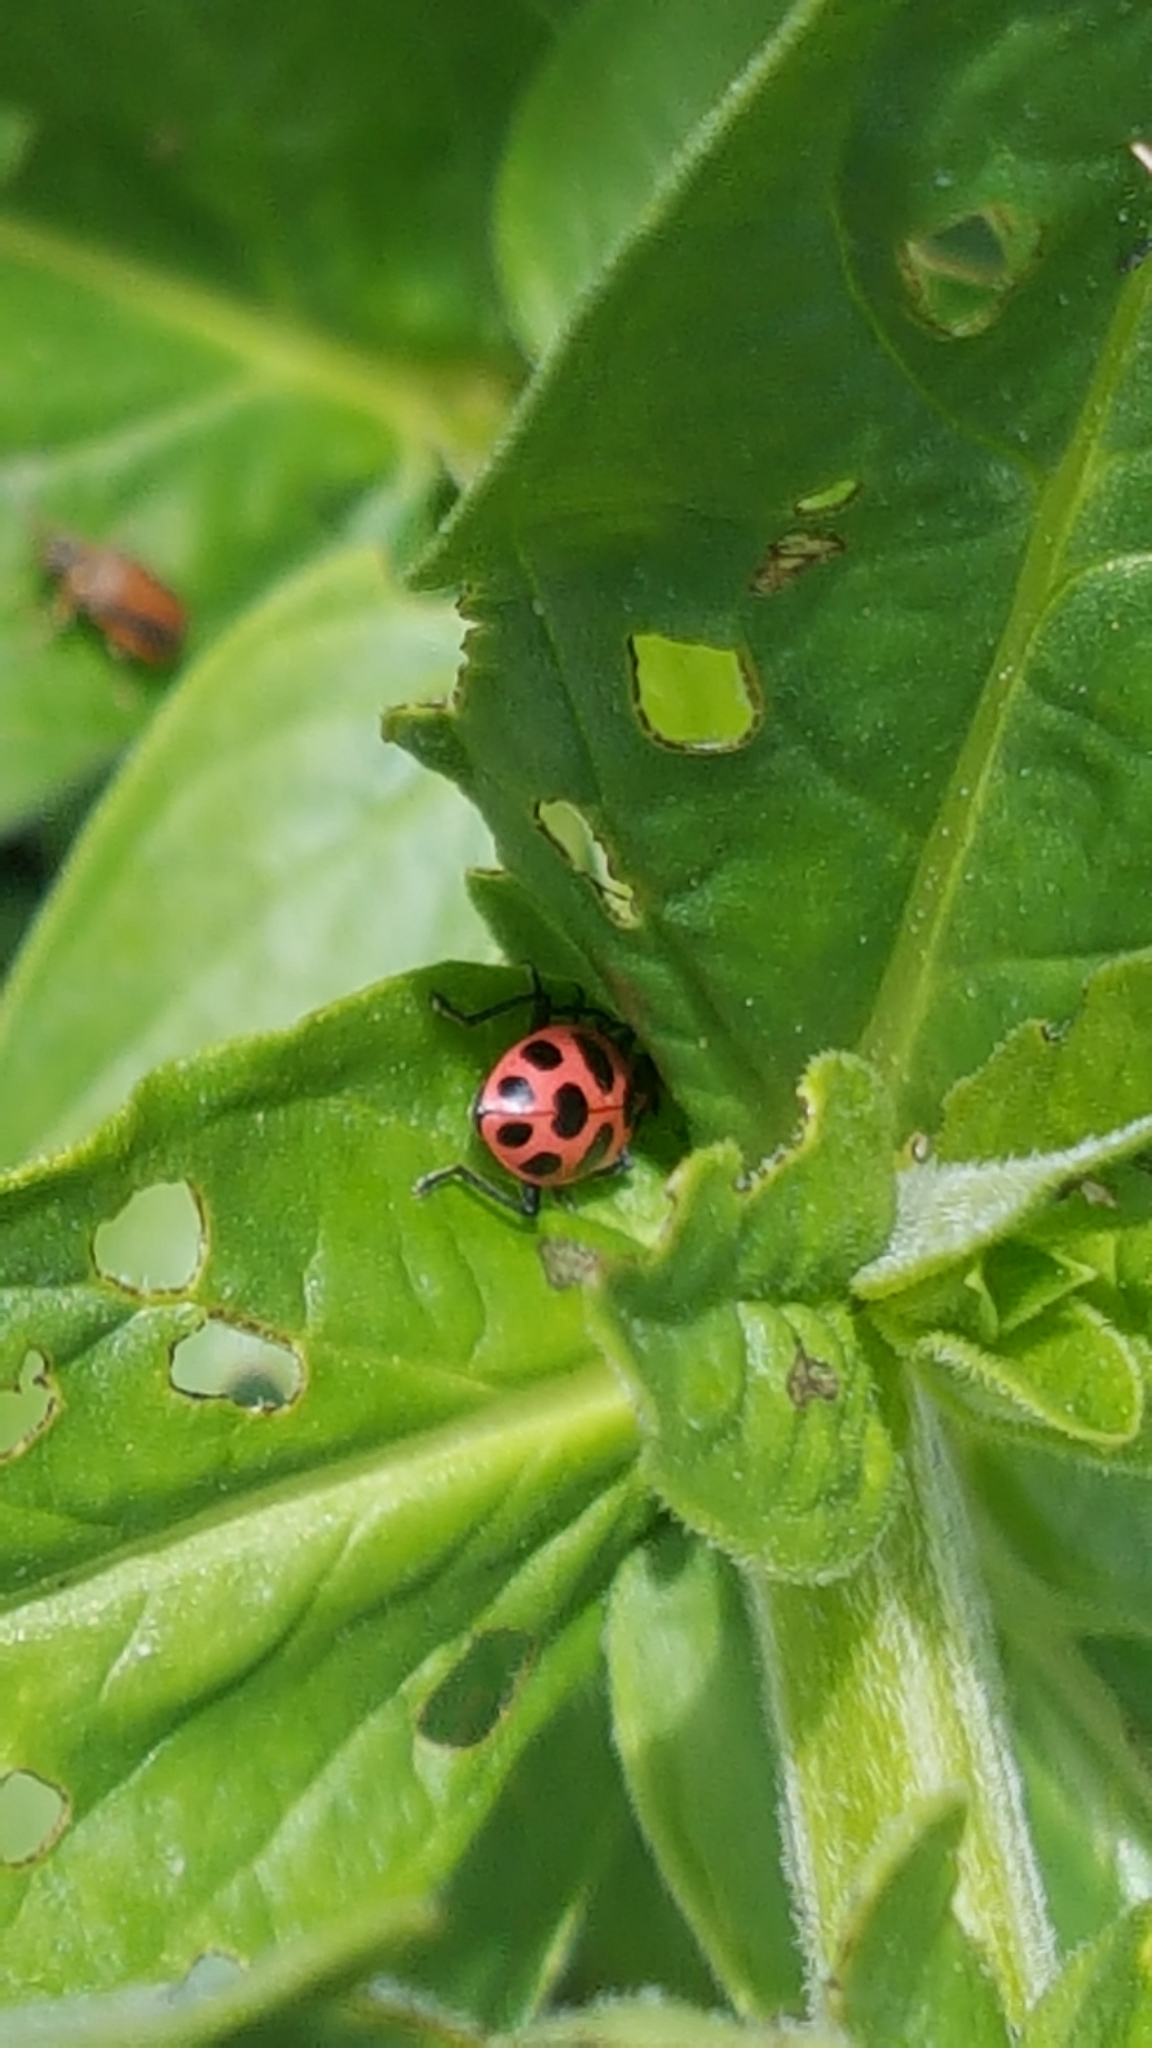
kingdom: Animalia
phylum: Arthropoda
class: Insecta
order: Coleoptera
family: Coccinellidae
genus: Coleomegilla
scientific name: Coleomegilla maculata
